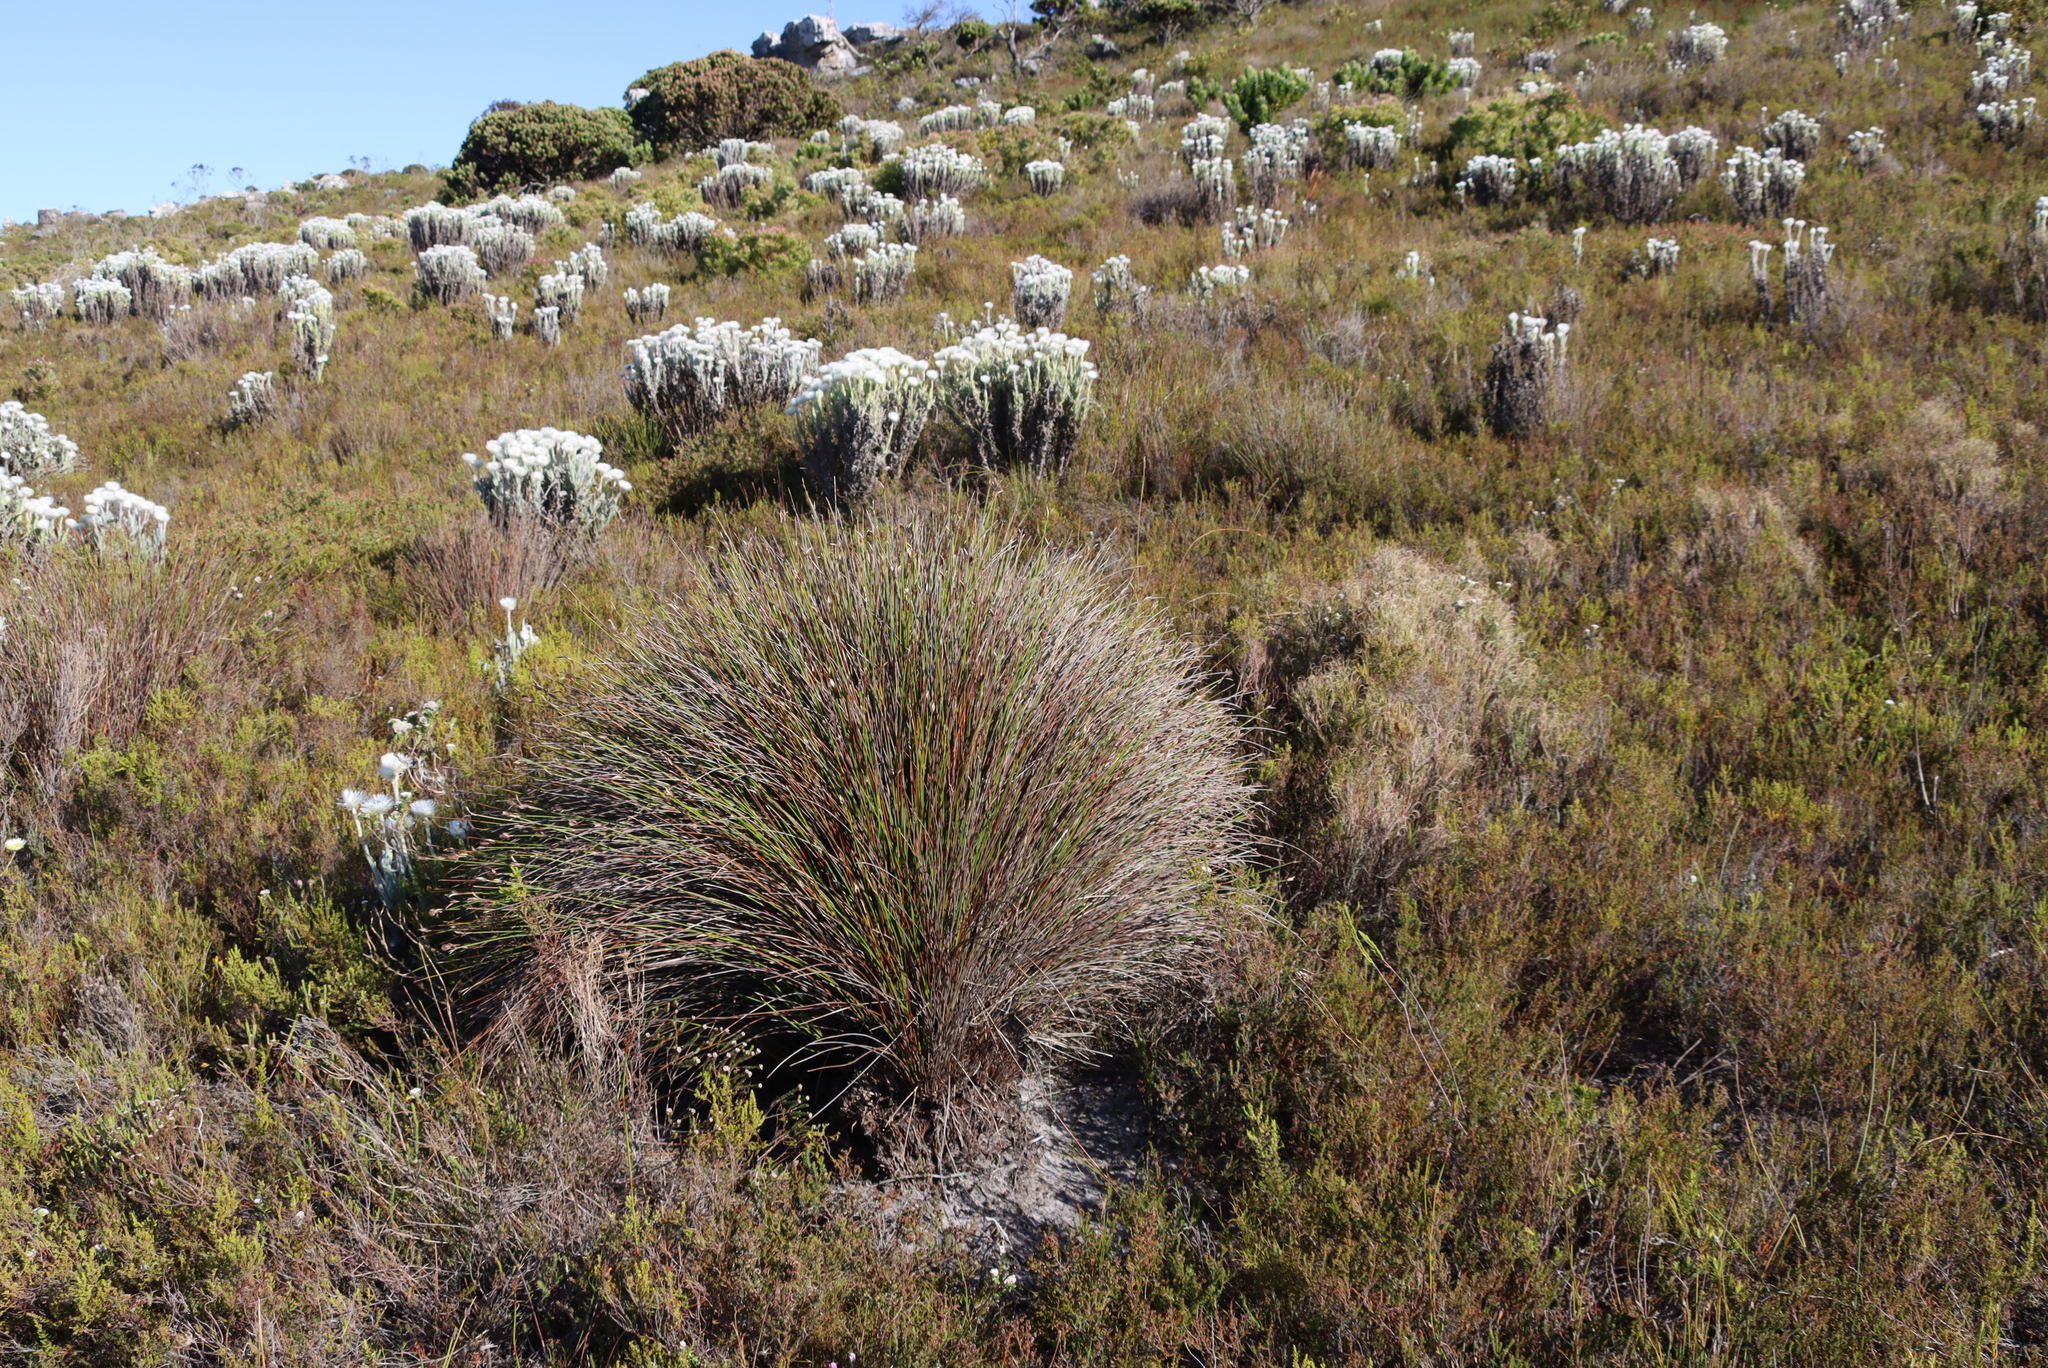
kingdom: Plantae
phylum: Tracheophyta
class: Magnoliopsida
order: Asterales
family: Asteraceae
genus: Syncarpha
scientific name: Syncarpha vestita
